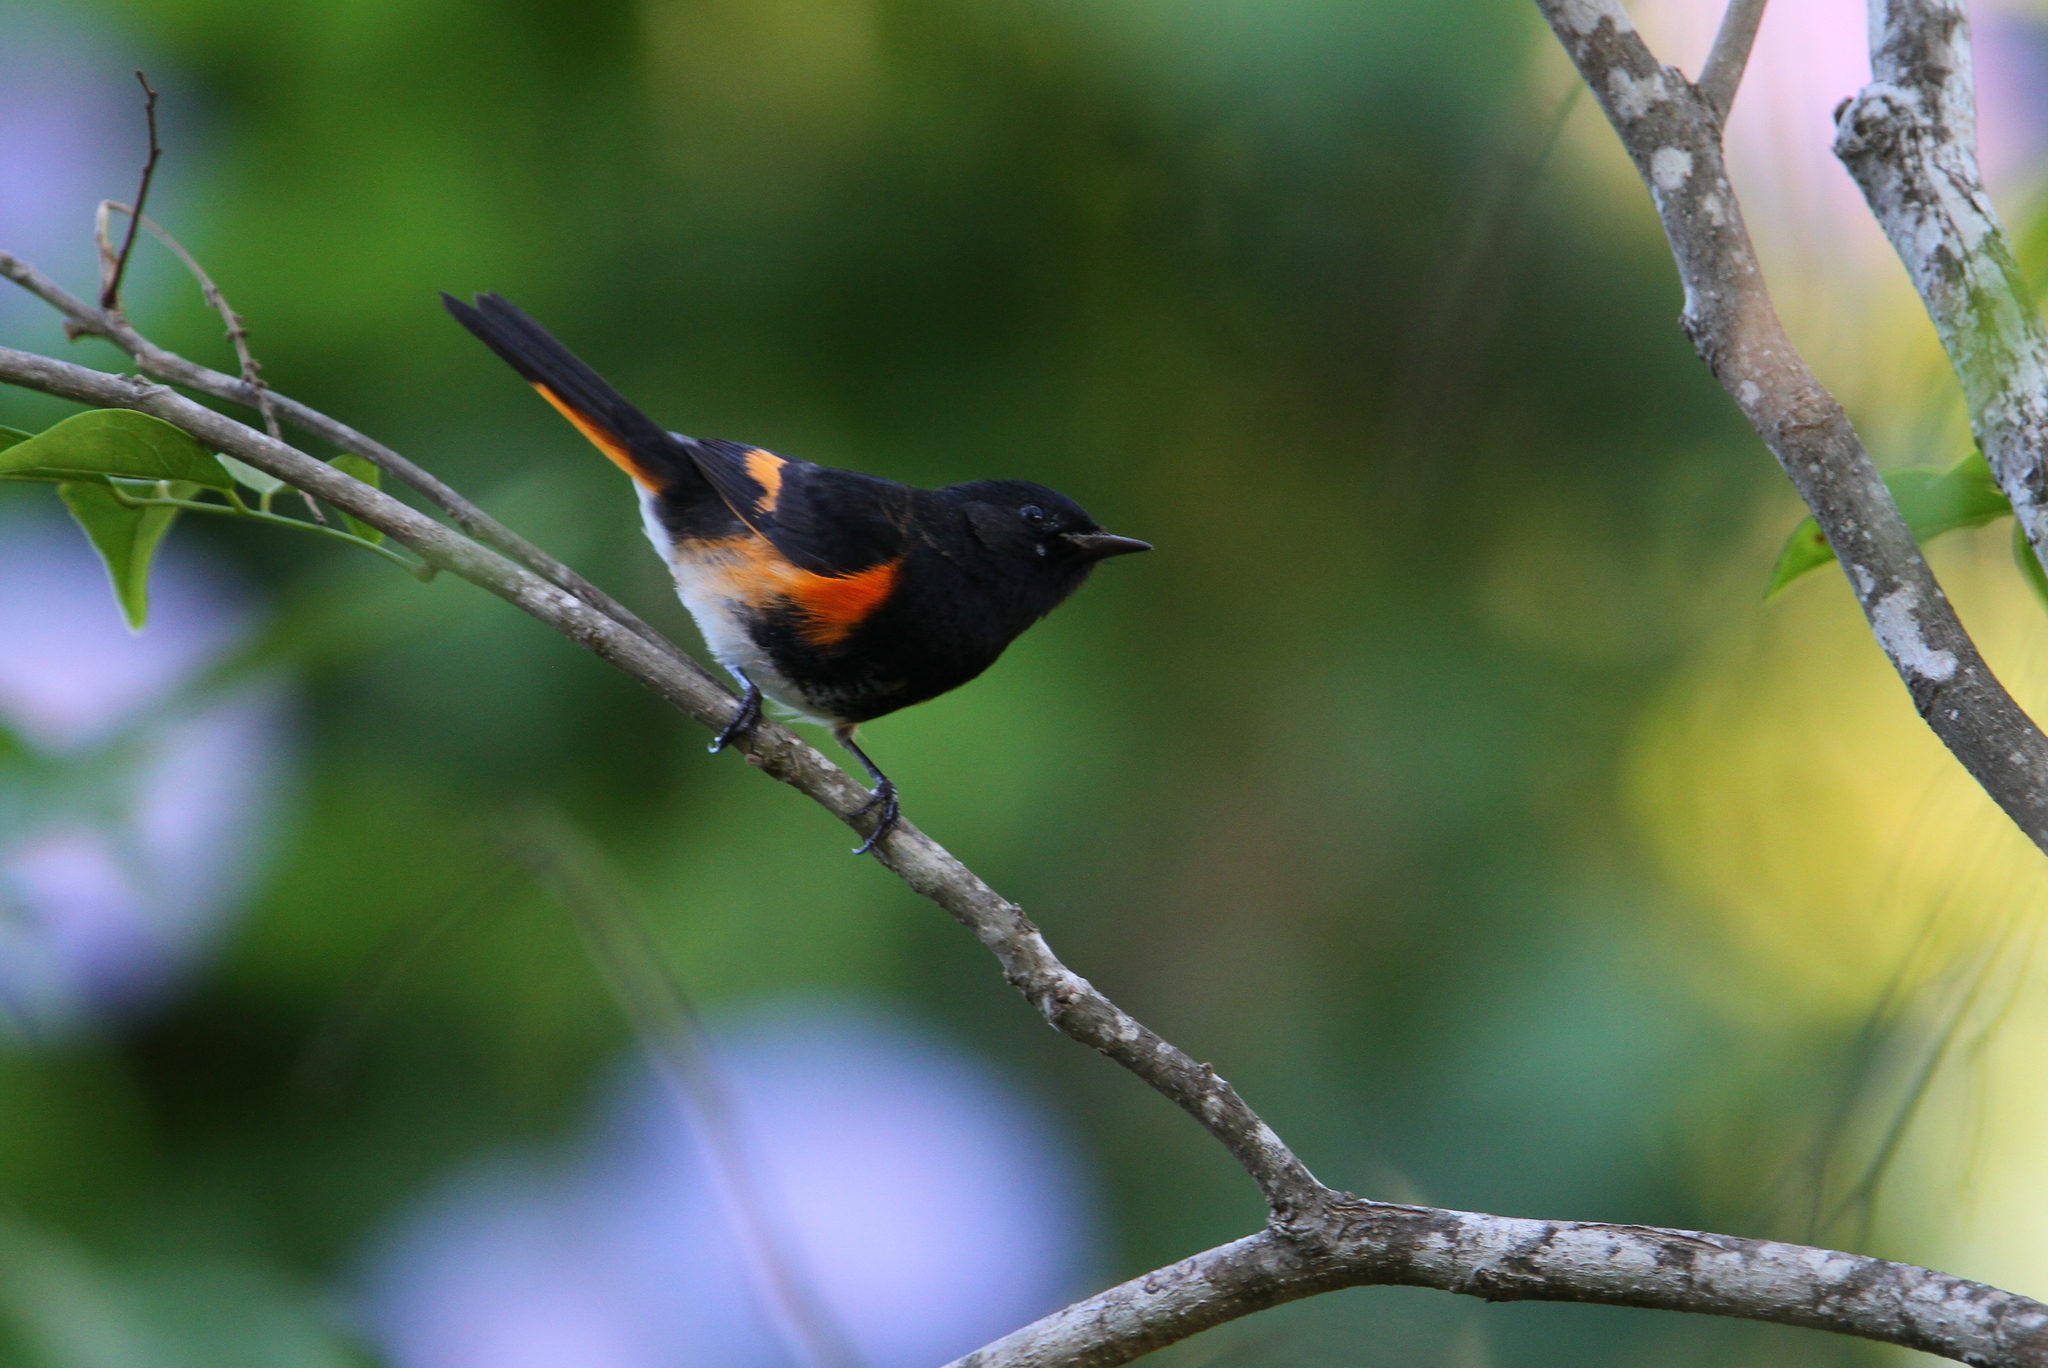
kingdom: Animalia
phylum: Chordata
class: Aves
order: Passeriformes
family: Parulidae
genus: Setophaga
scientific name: Setophaga ruticilla
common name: American redstart
